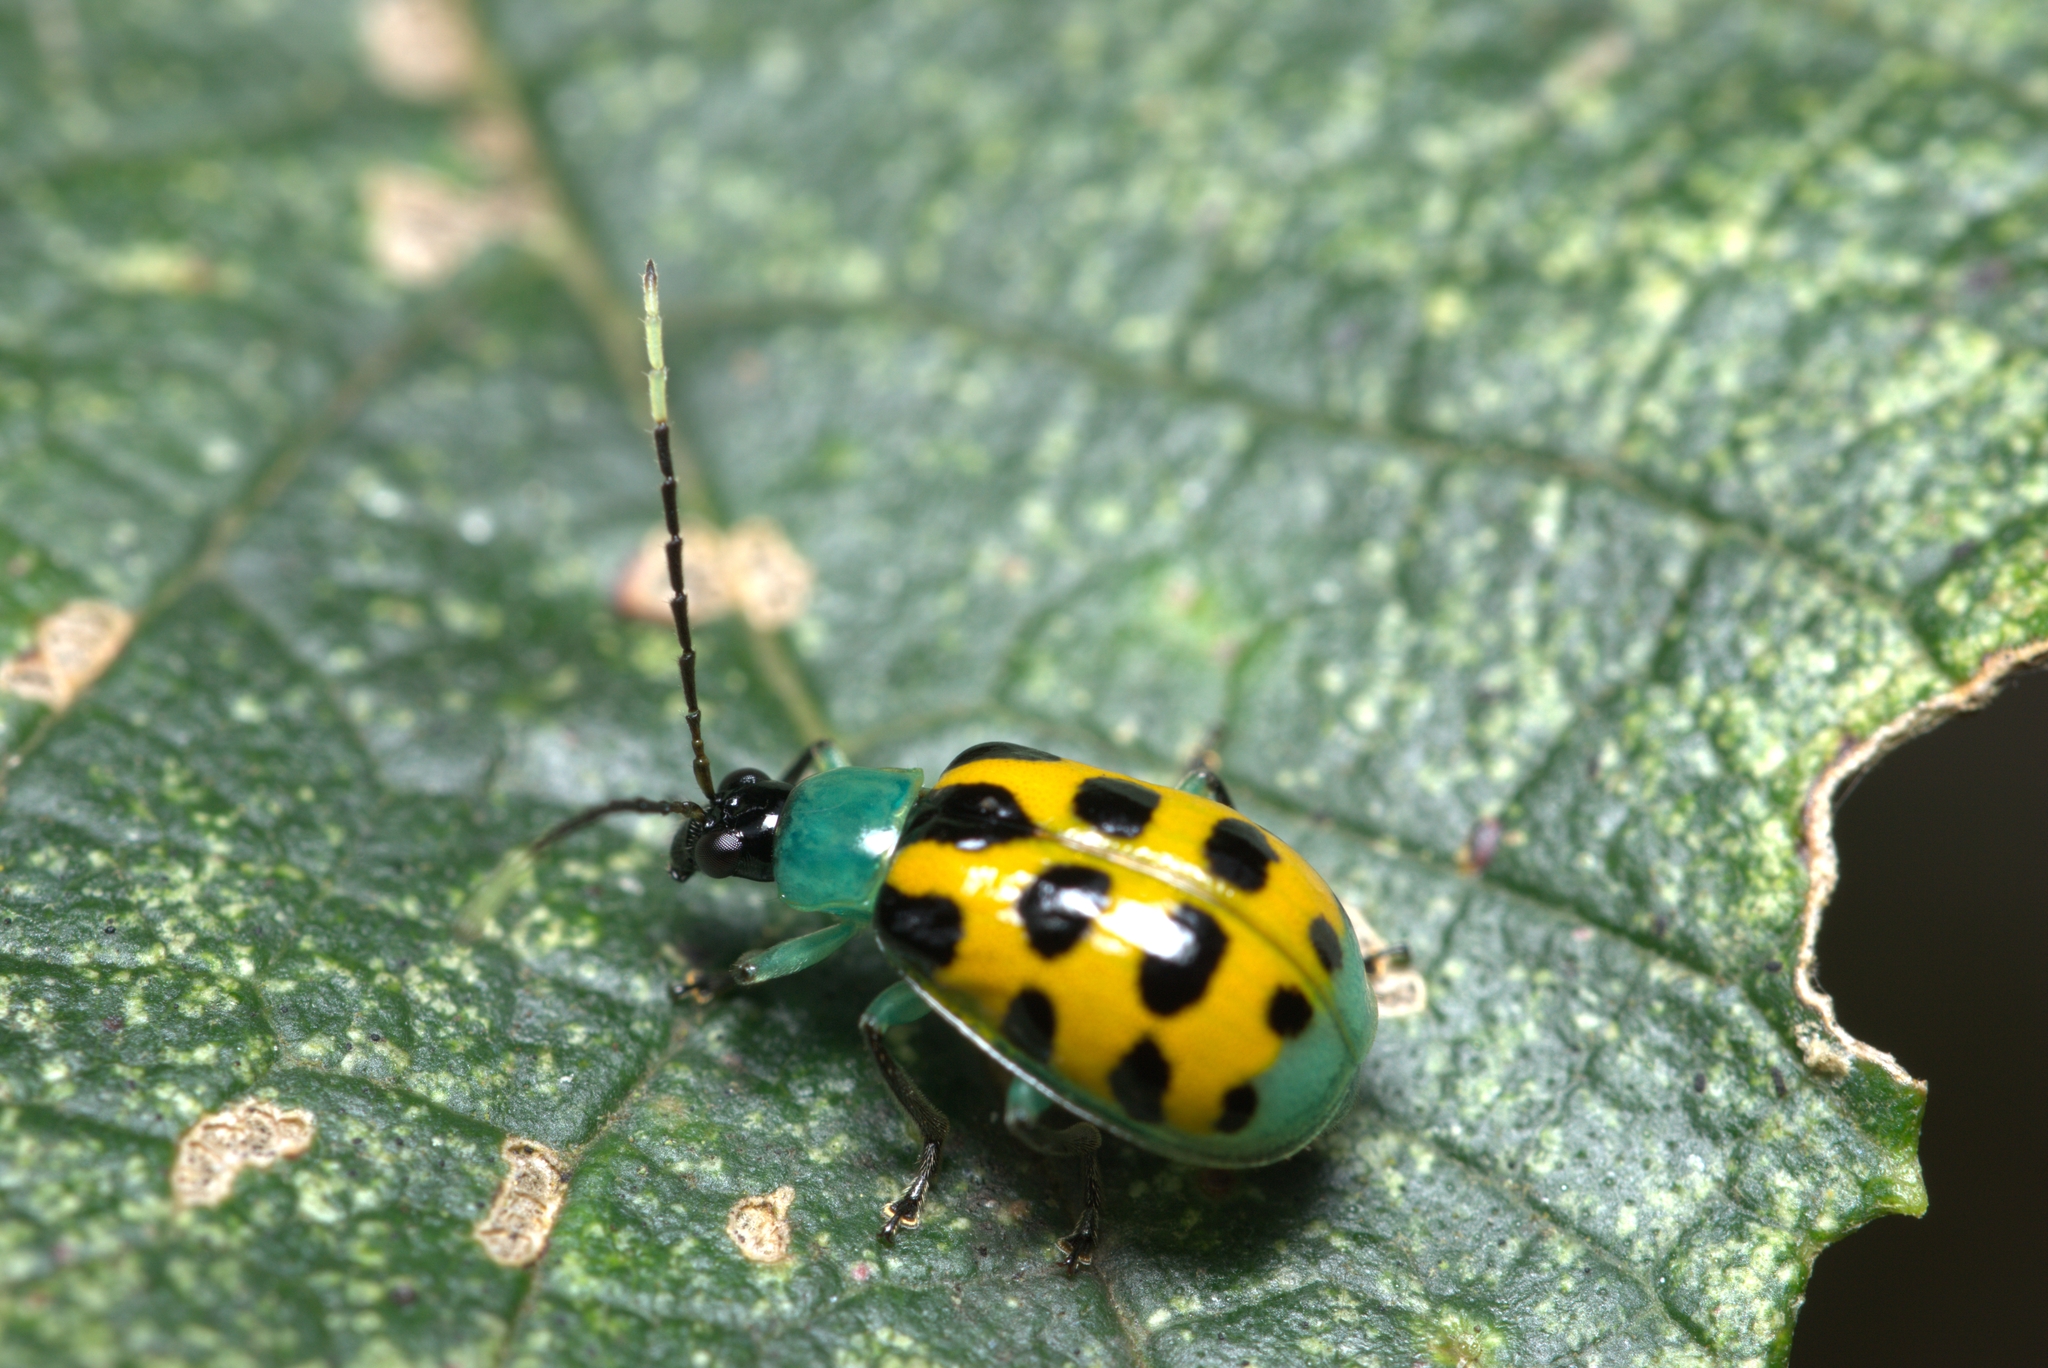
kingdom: Animalia
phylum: Arthropoda
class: Insecta
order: Coleoptera
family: Chrysomelidae
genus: Diabrotica
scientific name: Diabrotica limitata
